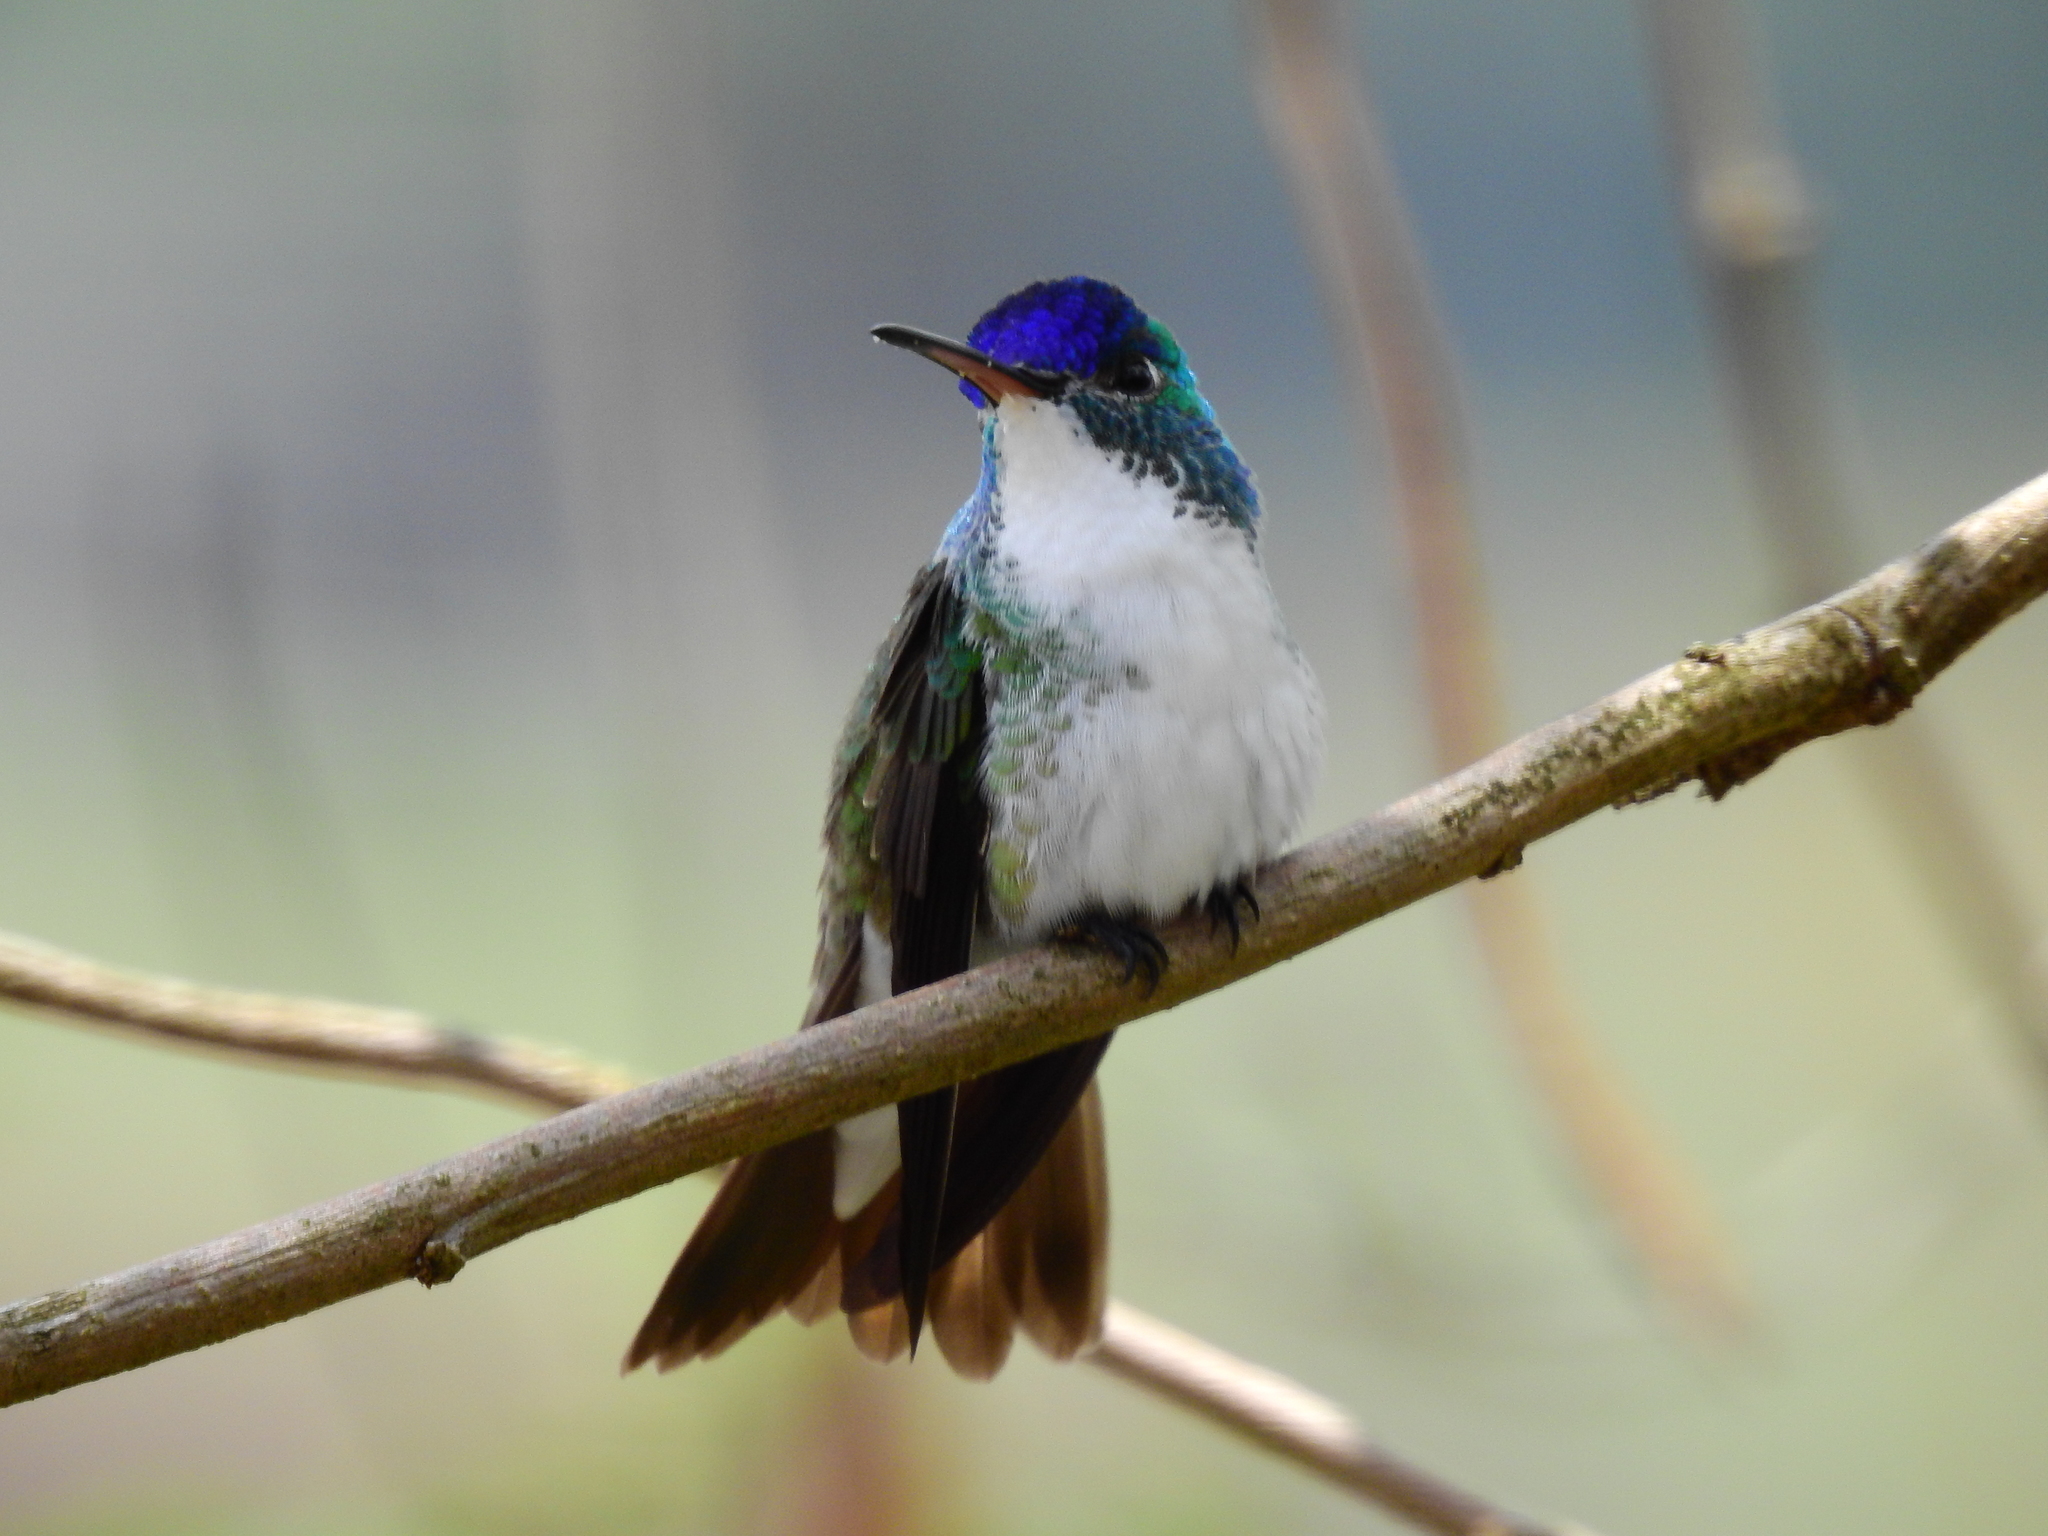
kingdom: Animalia
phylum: Chordata
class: Aves
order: Apodiformes
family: Trochilidae
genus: Uranomitra
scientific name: Uranomitra franciae
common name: Andean emerald
